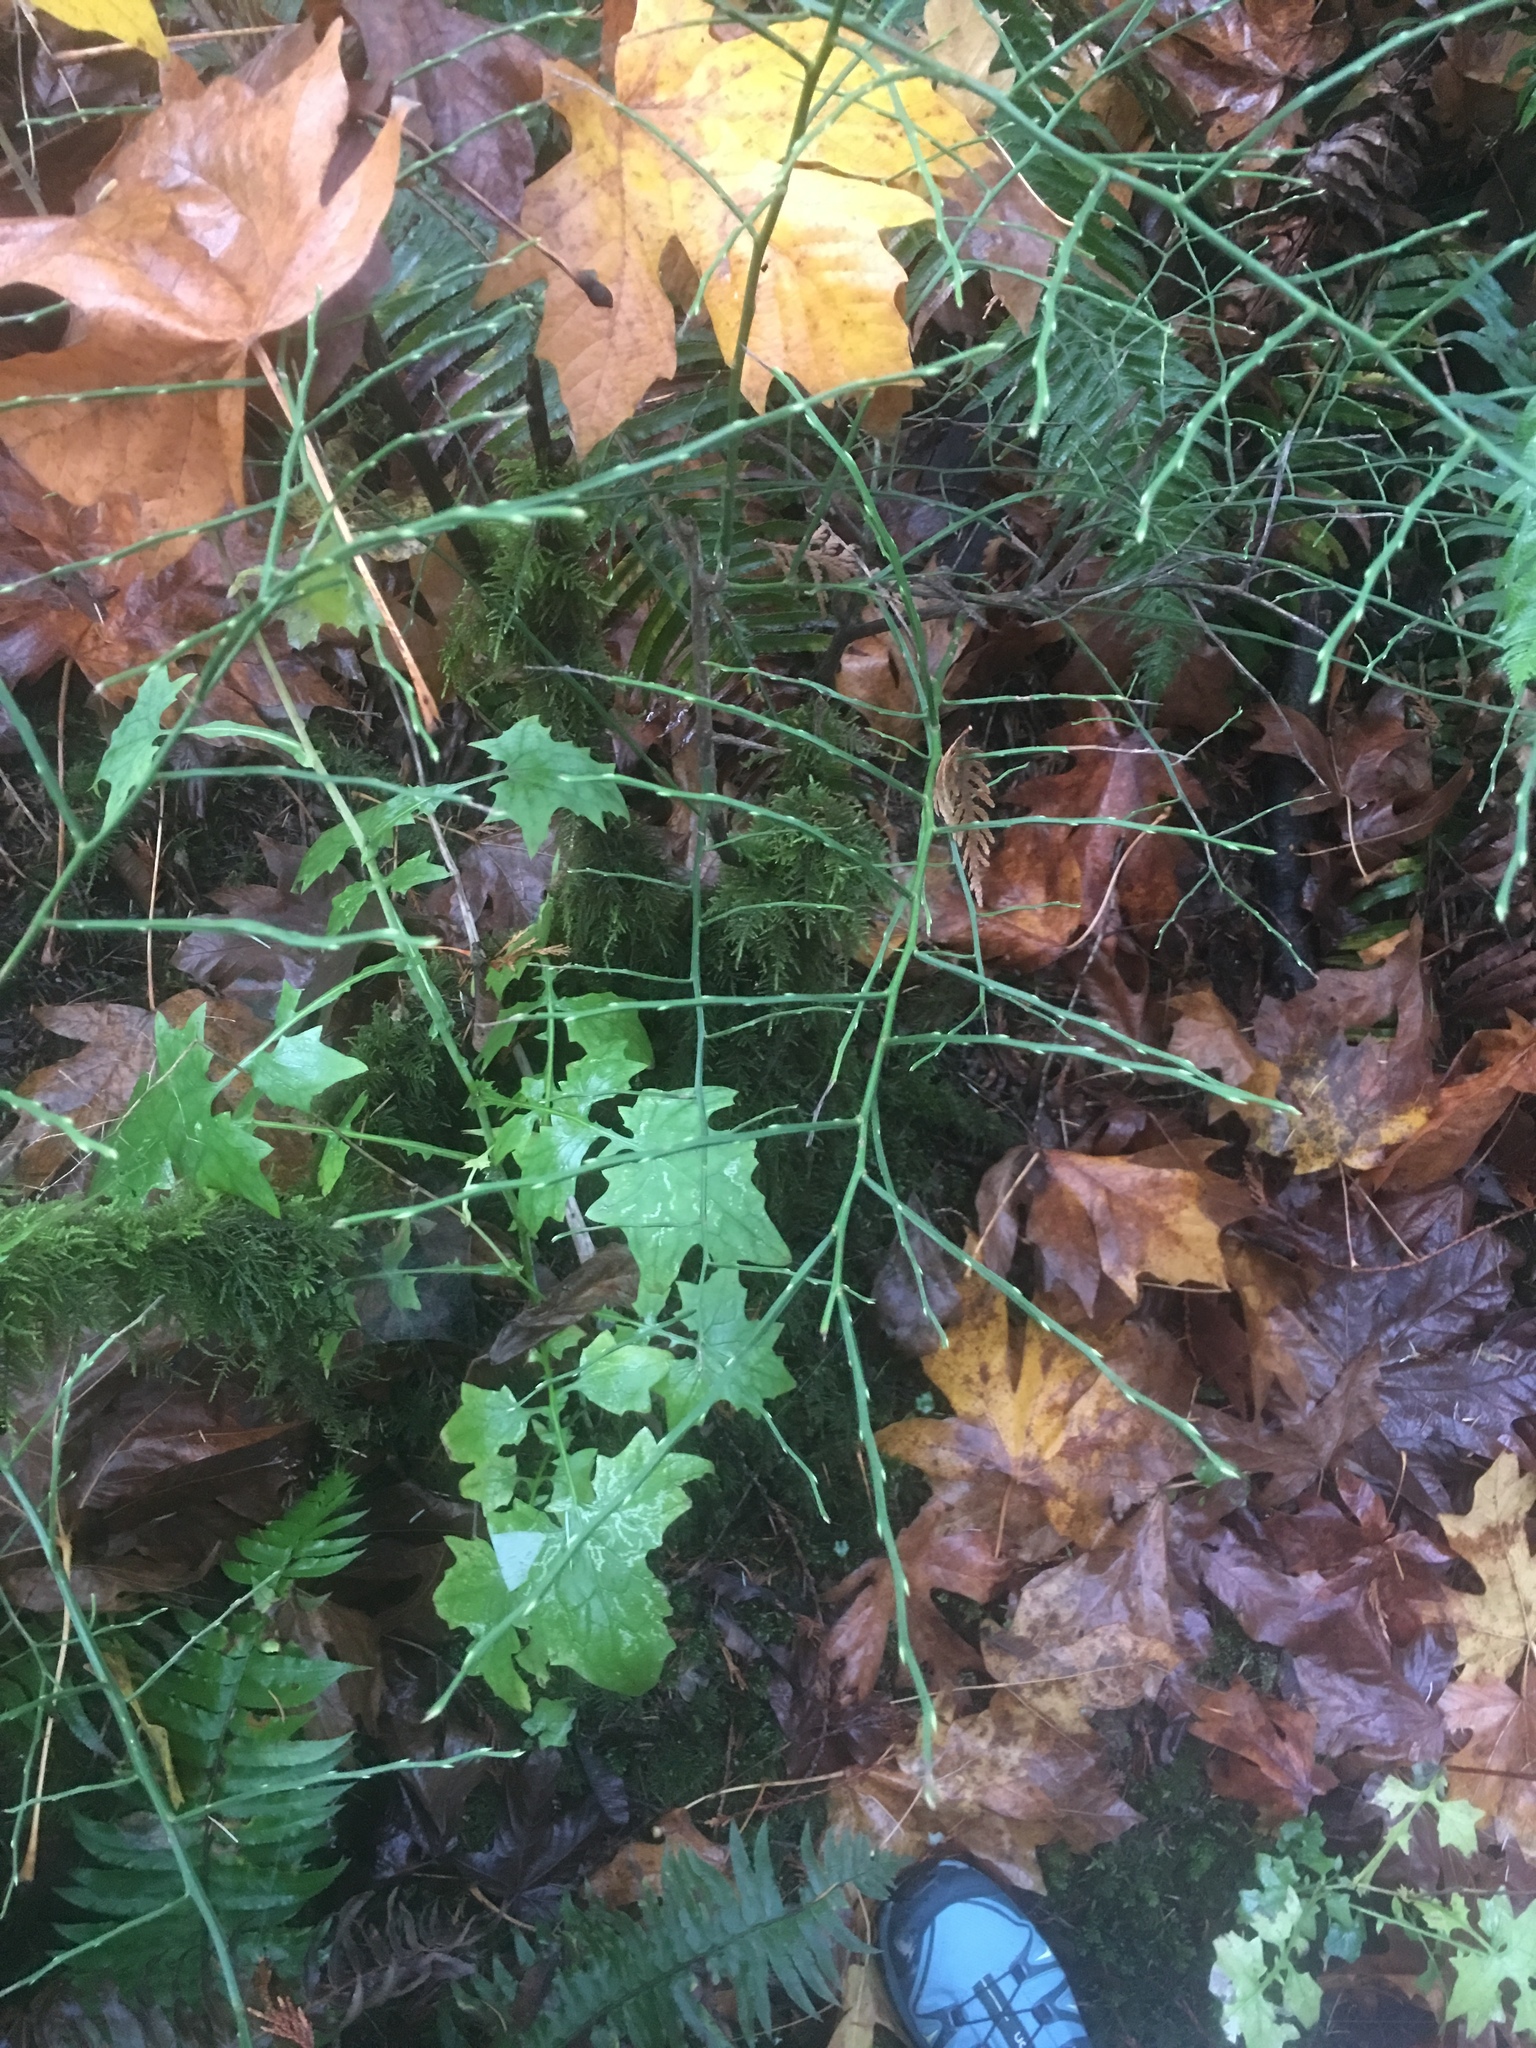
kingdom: Plantae
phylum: Tracheophyta
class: Magnoliopsida
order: Ericales
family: Ericaceae
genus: Vaccinium
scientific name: Vaccinium parvifolium
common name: Red-huckleberry
